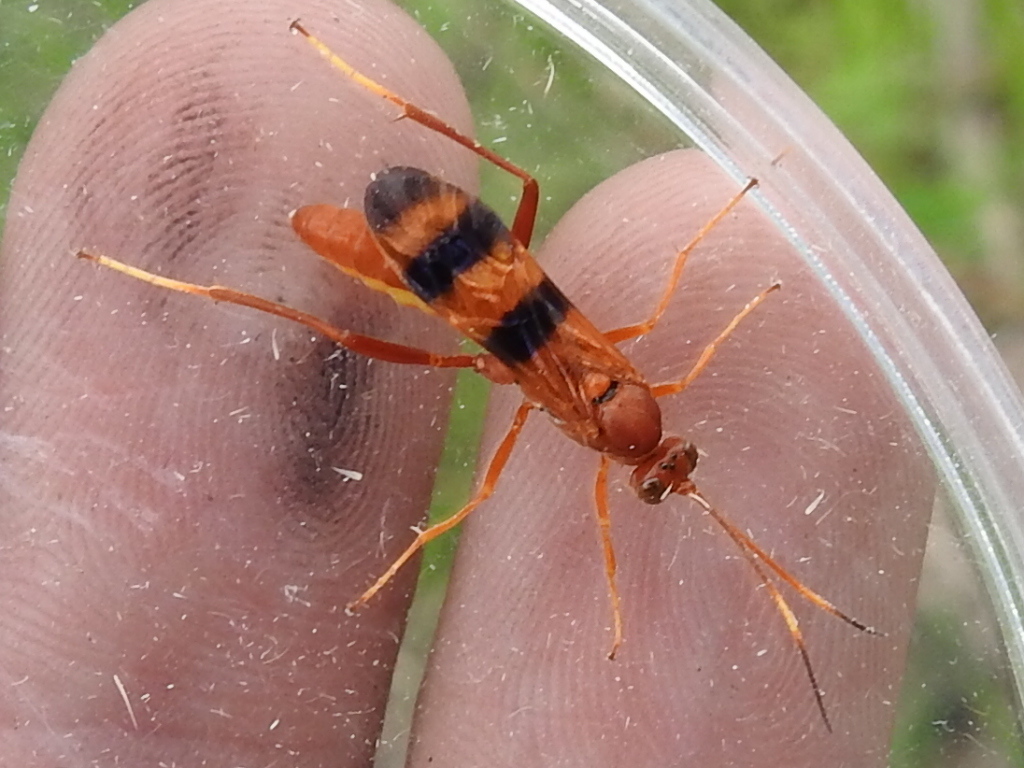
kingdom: Animalia
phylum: Arthropoda
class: Insecta
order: Hymenoptera
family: Ichneumonidae
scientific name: Ichneumonidae
